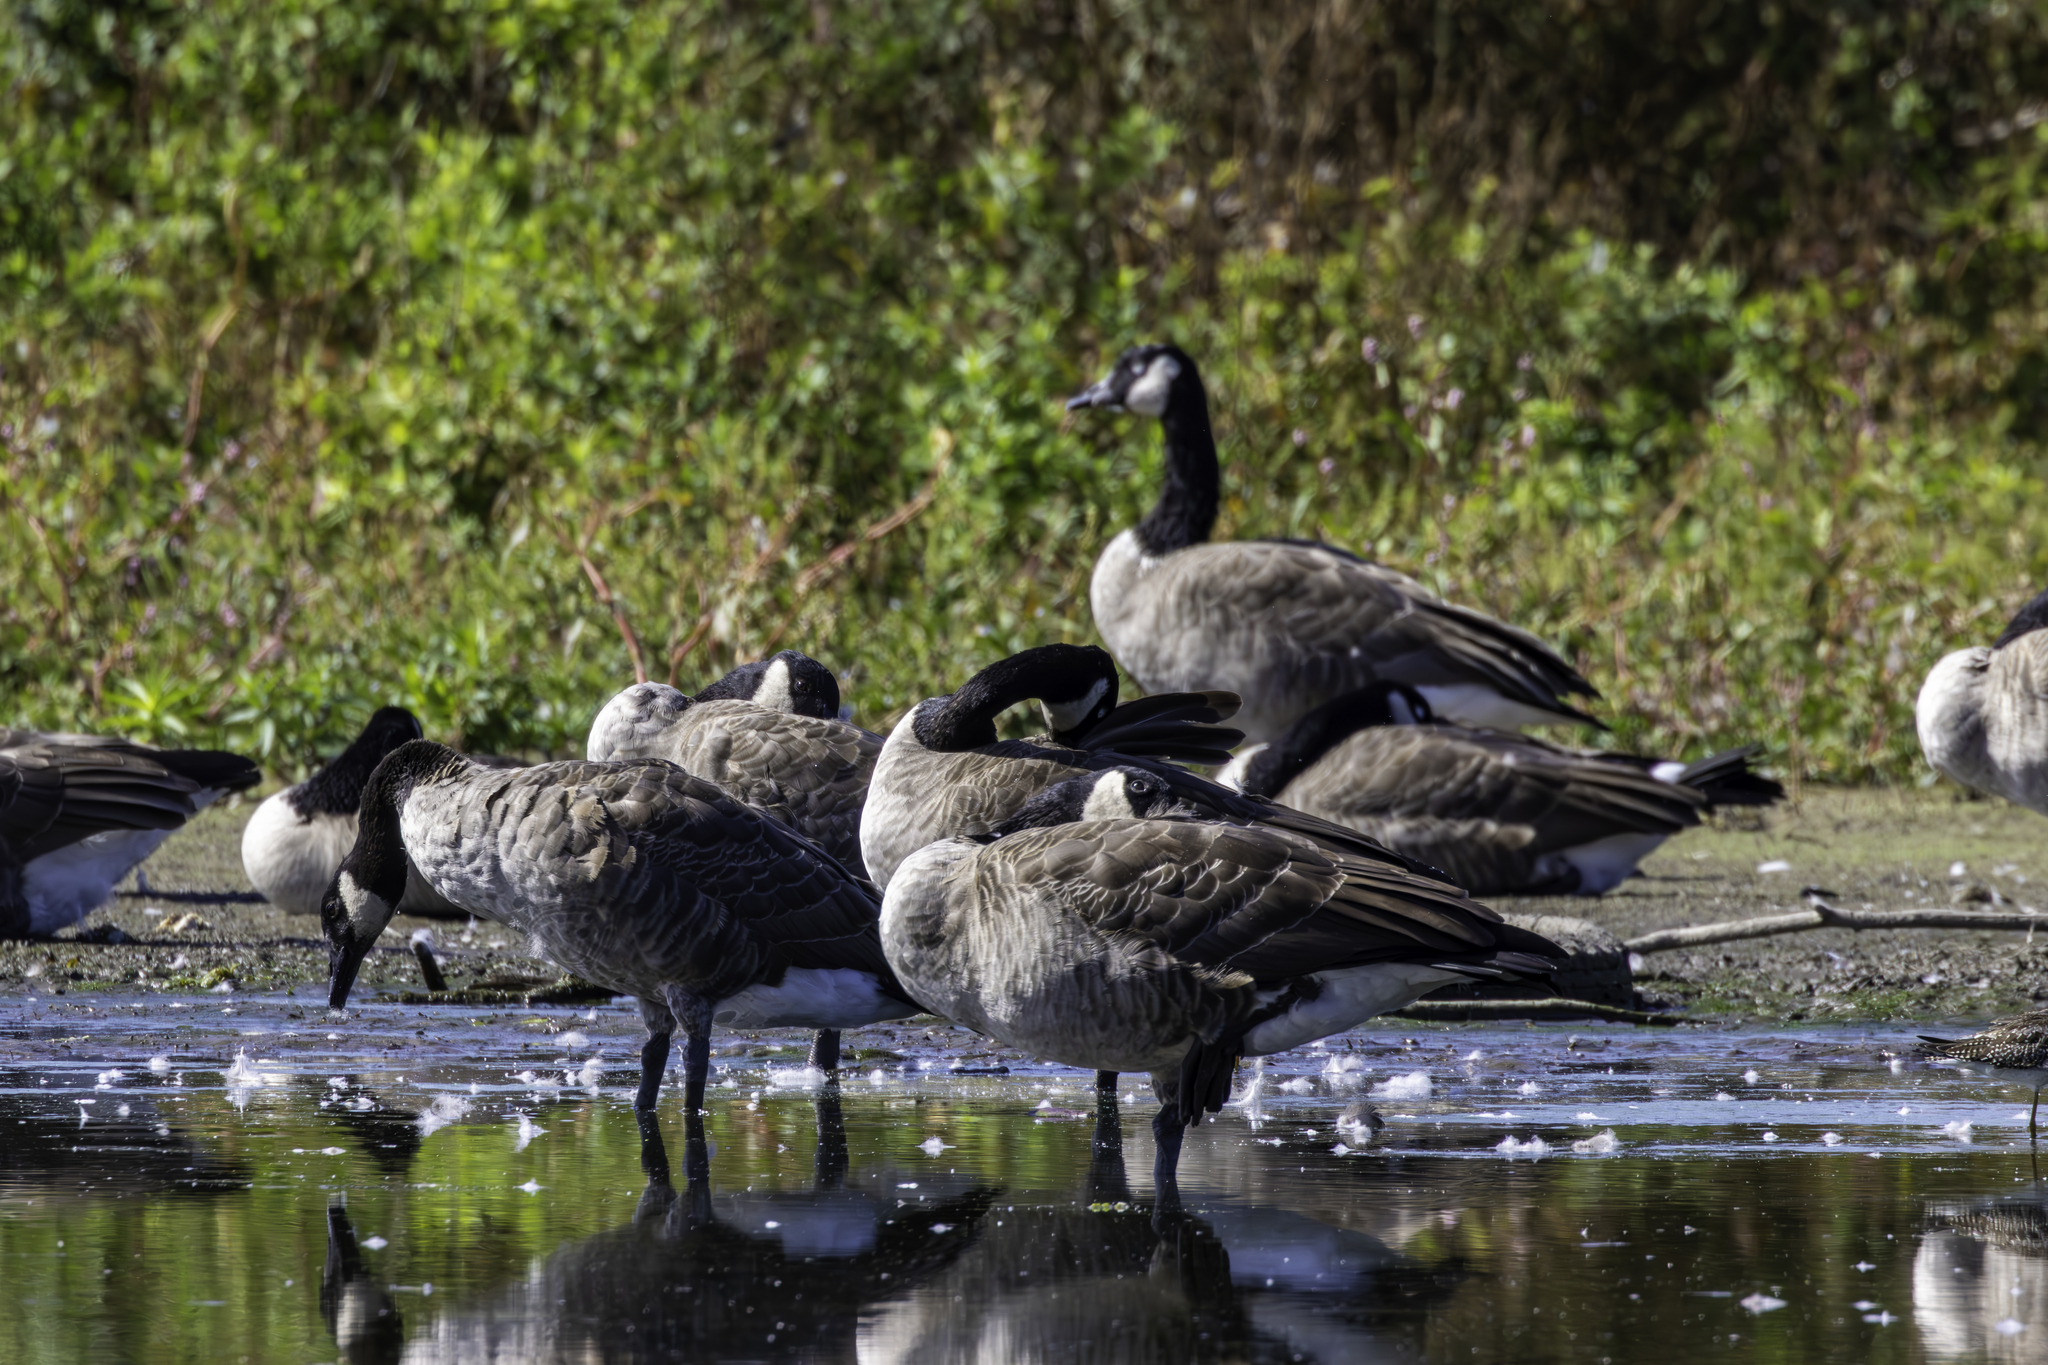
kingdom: Animalia
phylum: Chordata
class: Aves
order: Anseriformes
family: Anatidae
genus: Branta
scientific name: Branta canadensis
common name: Canada goose
